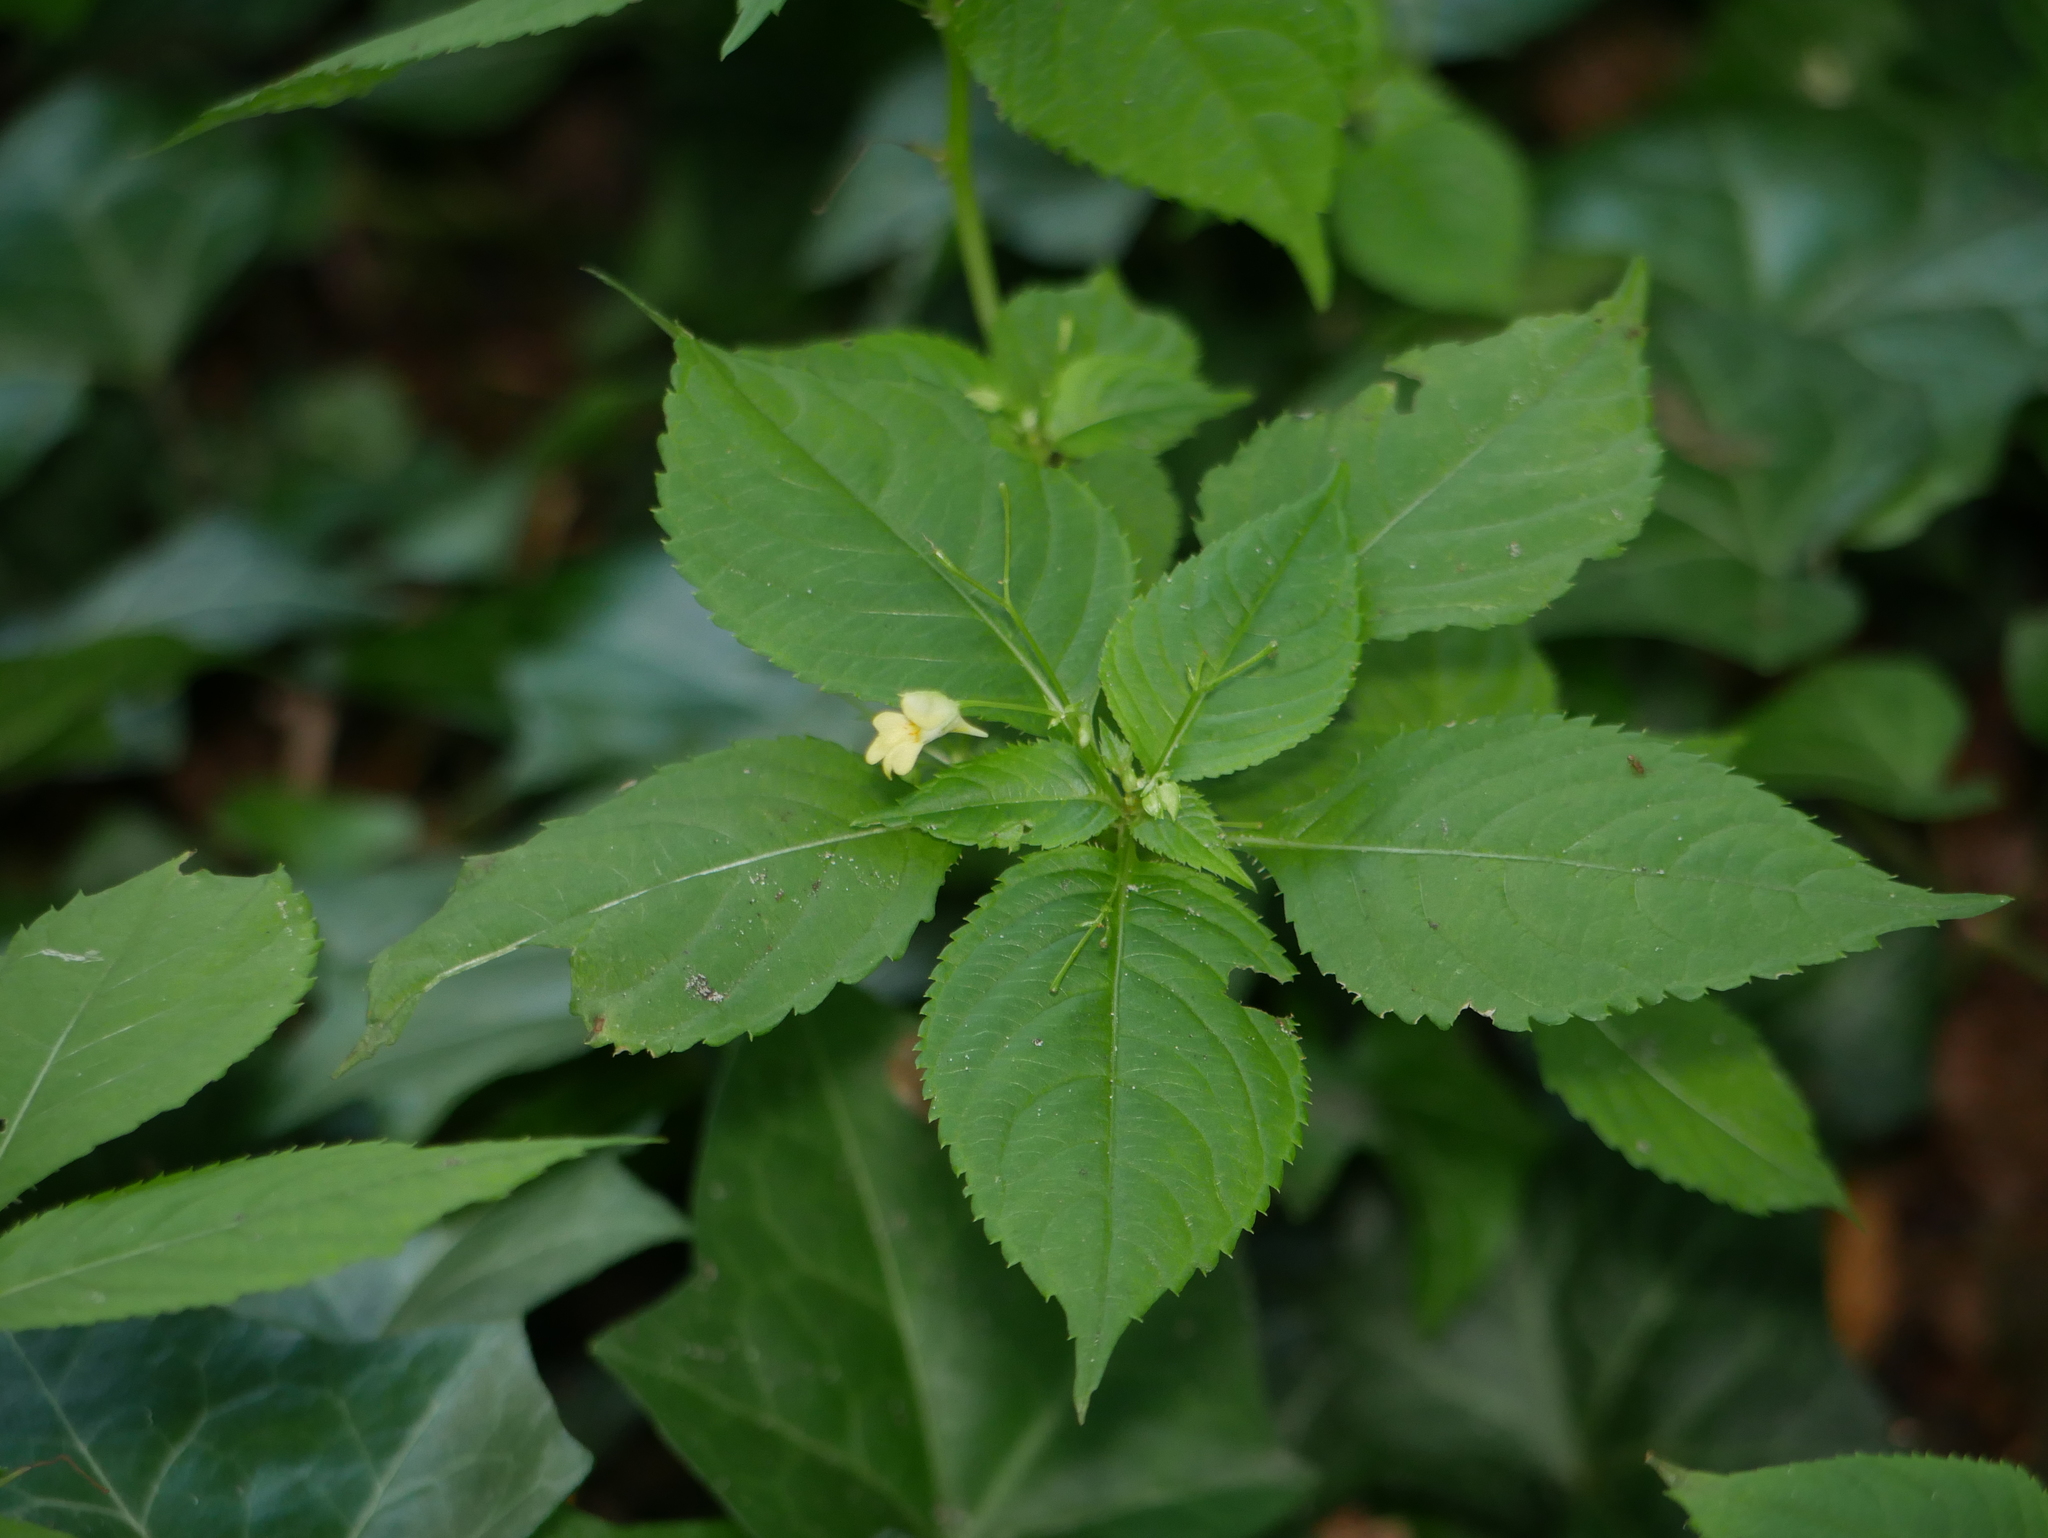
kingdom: Plantae
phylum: Tracheophyta
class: Magnoliopsida
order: Ericales
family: Balsaminaceae
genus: Impatiens
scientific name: Impatiens parviflora
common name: Small balsam
